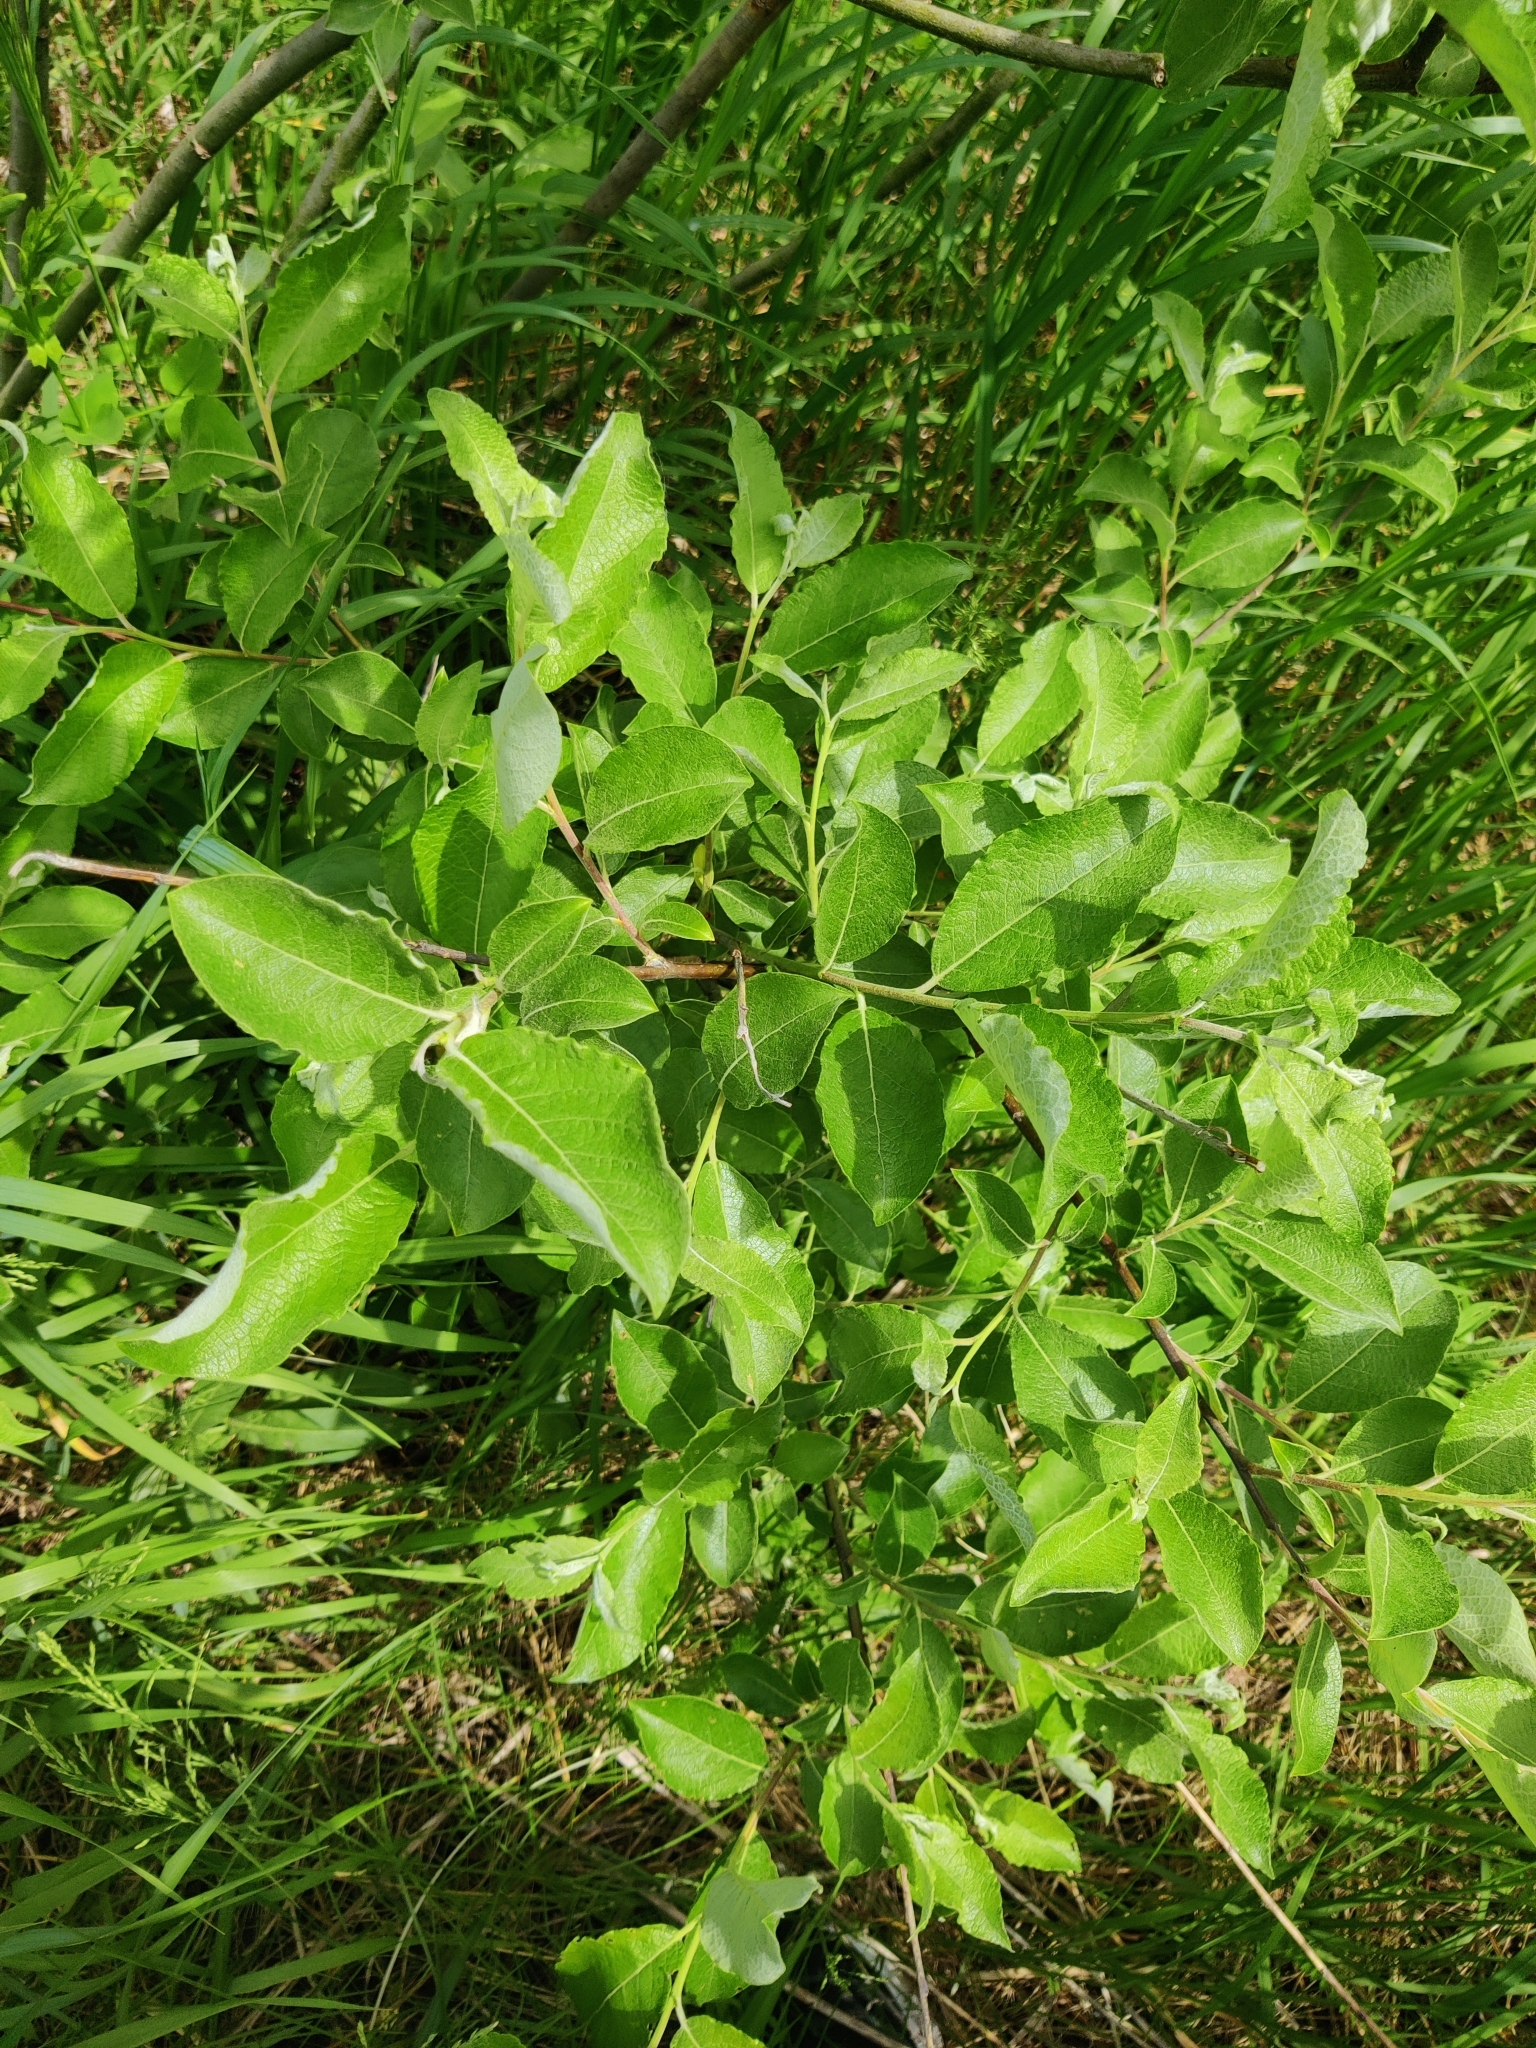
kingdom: Plantae
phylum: Tracheophyta
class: Magnoliopsida
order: Malpighiales
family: Salicaceae
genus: Salix
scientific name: Salix caprea
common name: Goat willow
